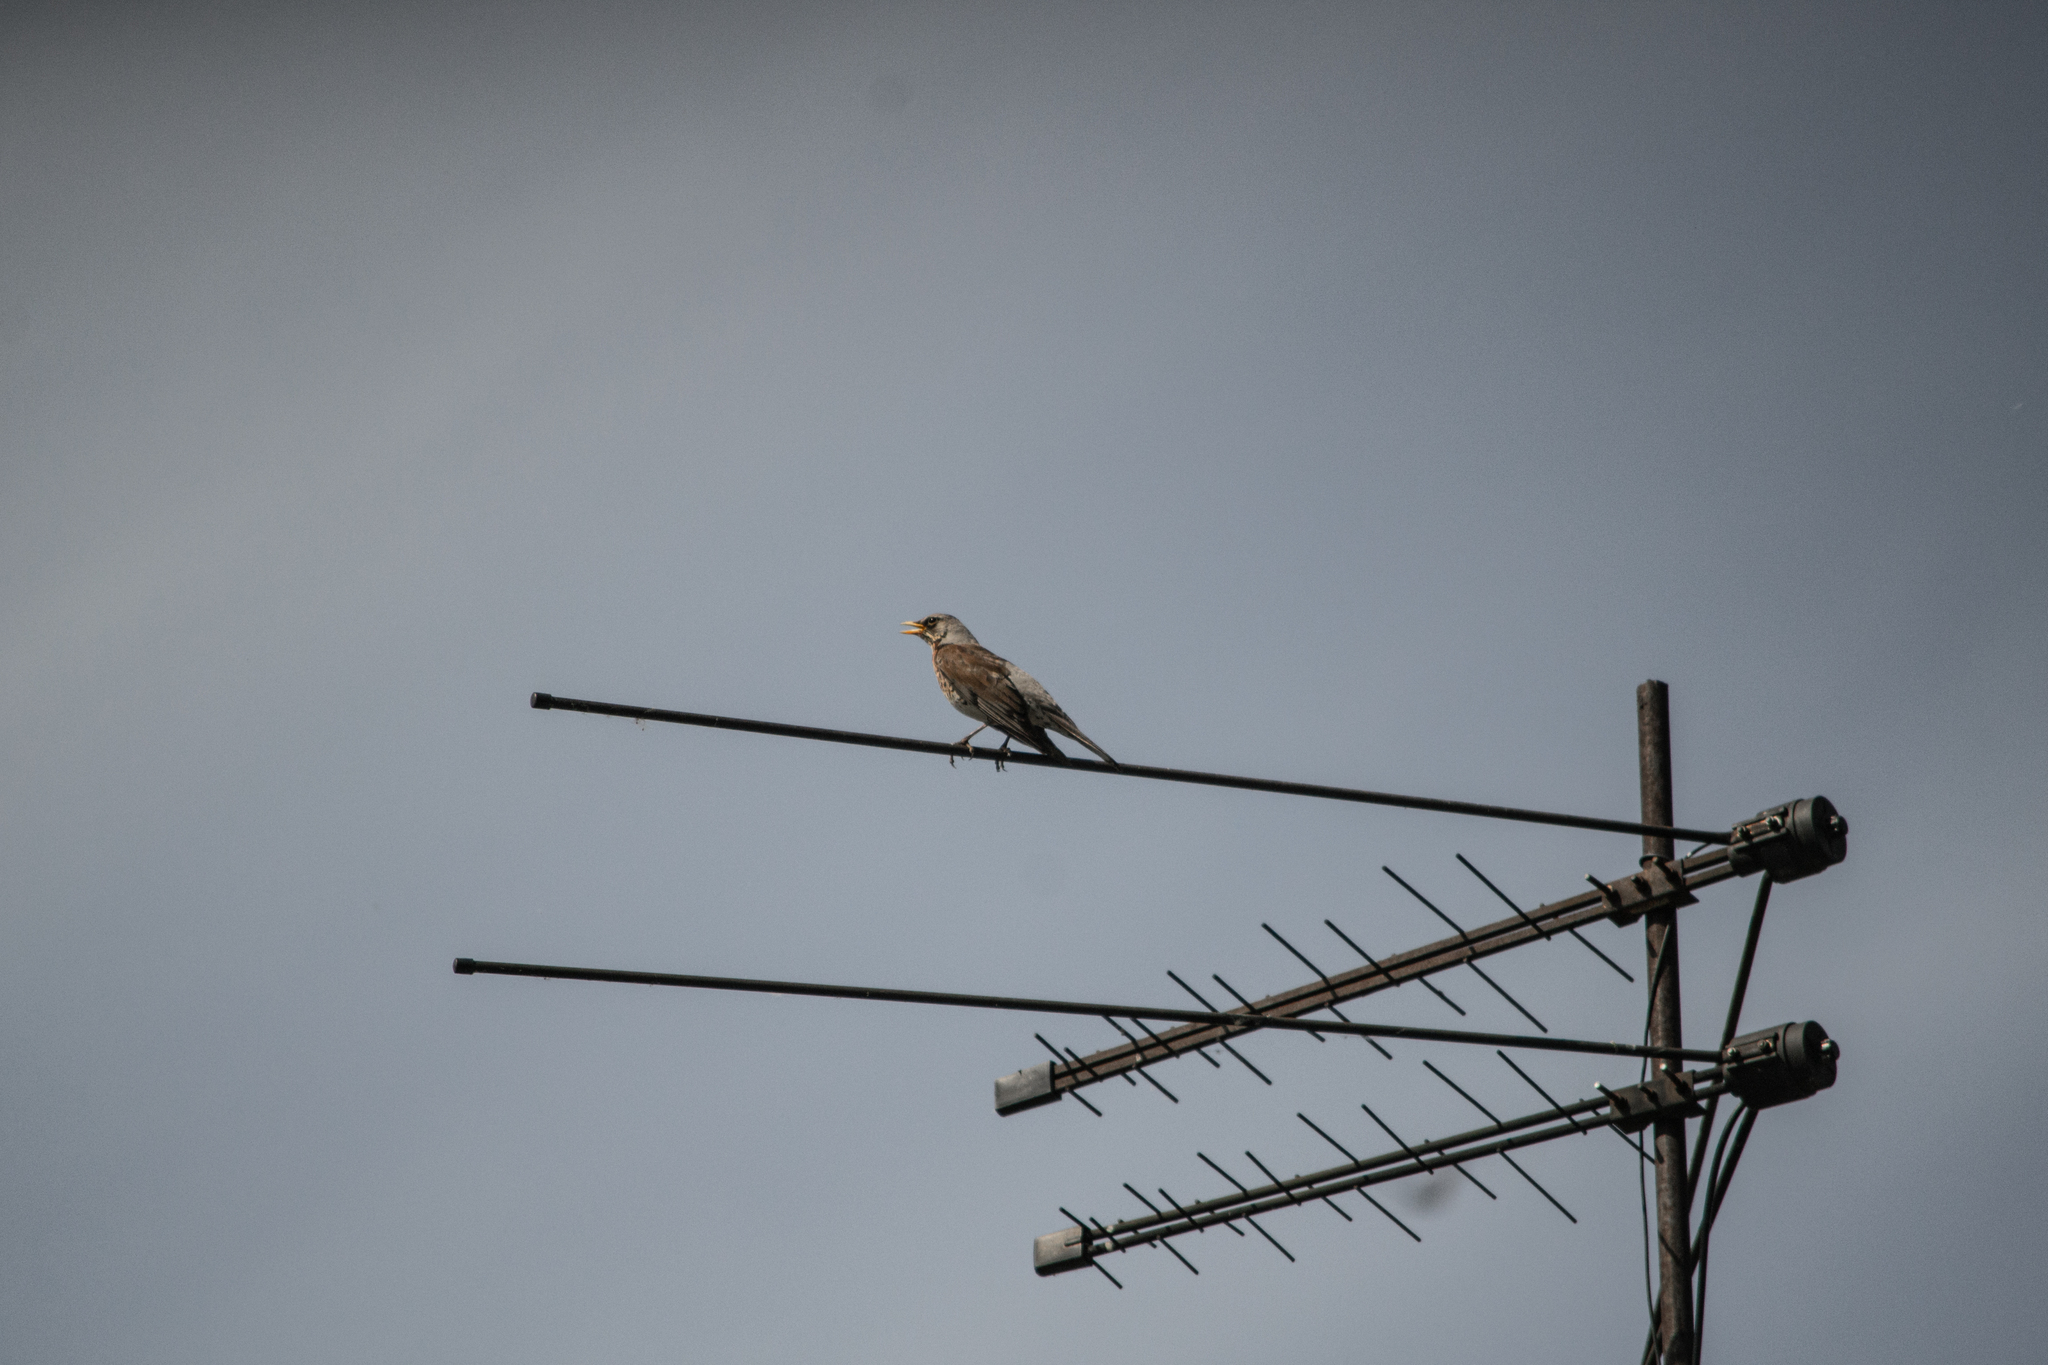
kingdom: Animalia
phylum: Chordata
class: Aves
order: Passeriformes
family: Turdidae
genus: Turdus
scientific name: Turdus pilaris
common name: Fieldfare
